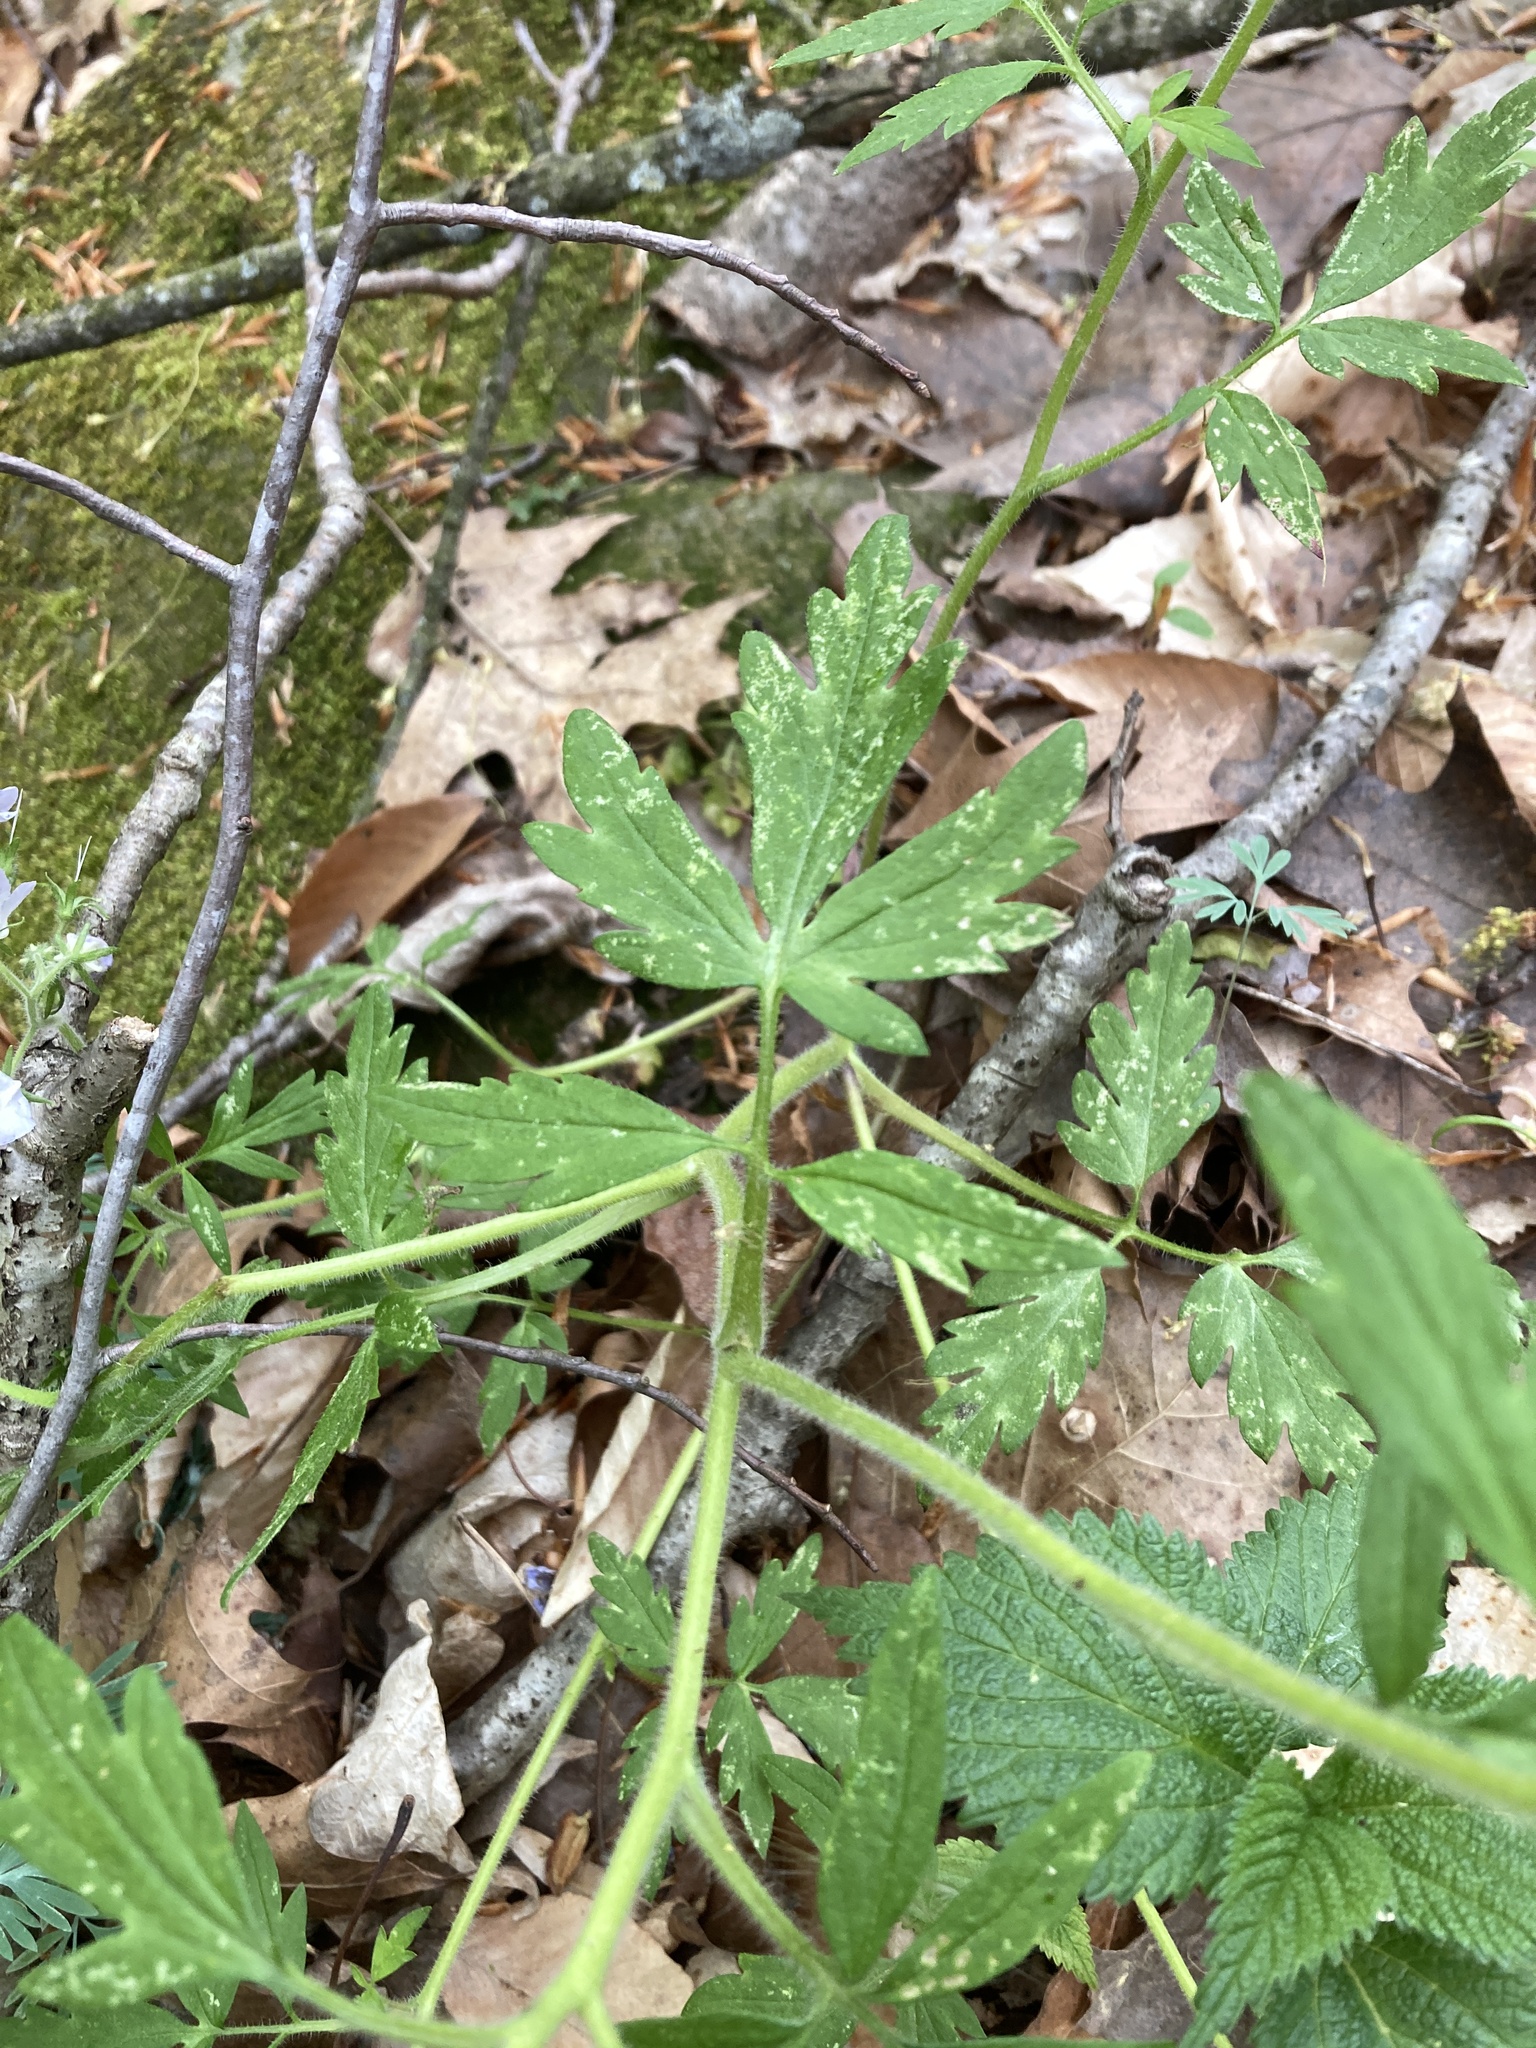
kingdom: Plantae
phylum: Tracheophyta
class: Magnoliopsida
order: Boraginales
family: Hydrophyllaceae
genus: Phacelia
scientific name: Phacelia bipinnatifida
